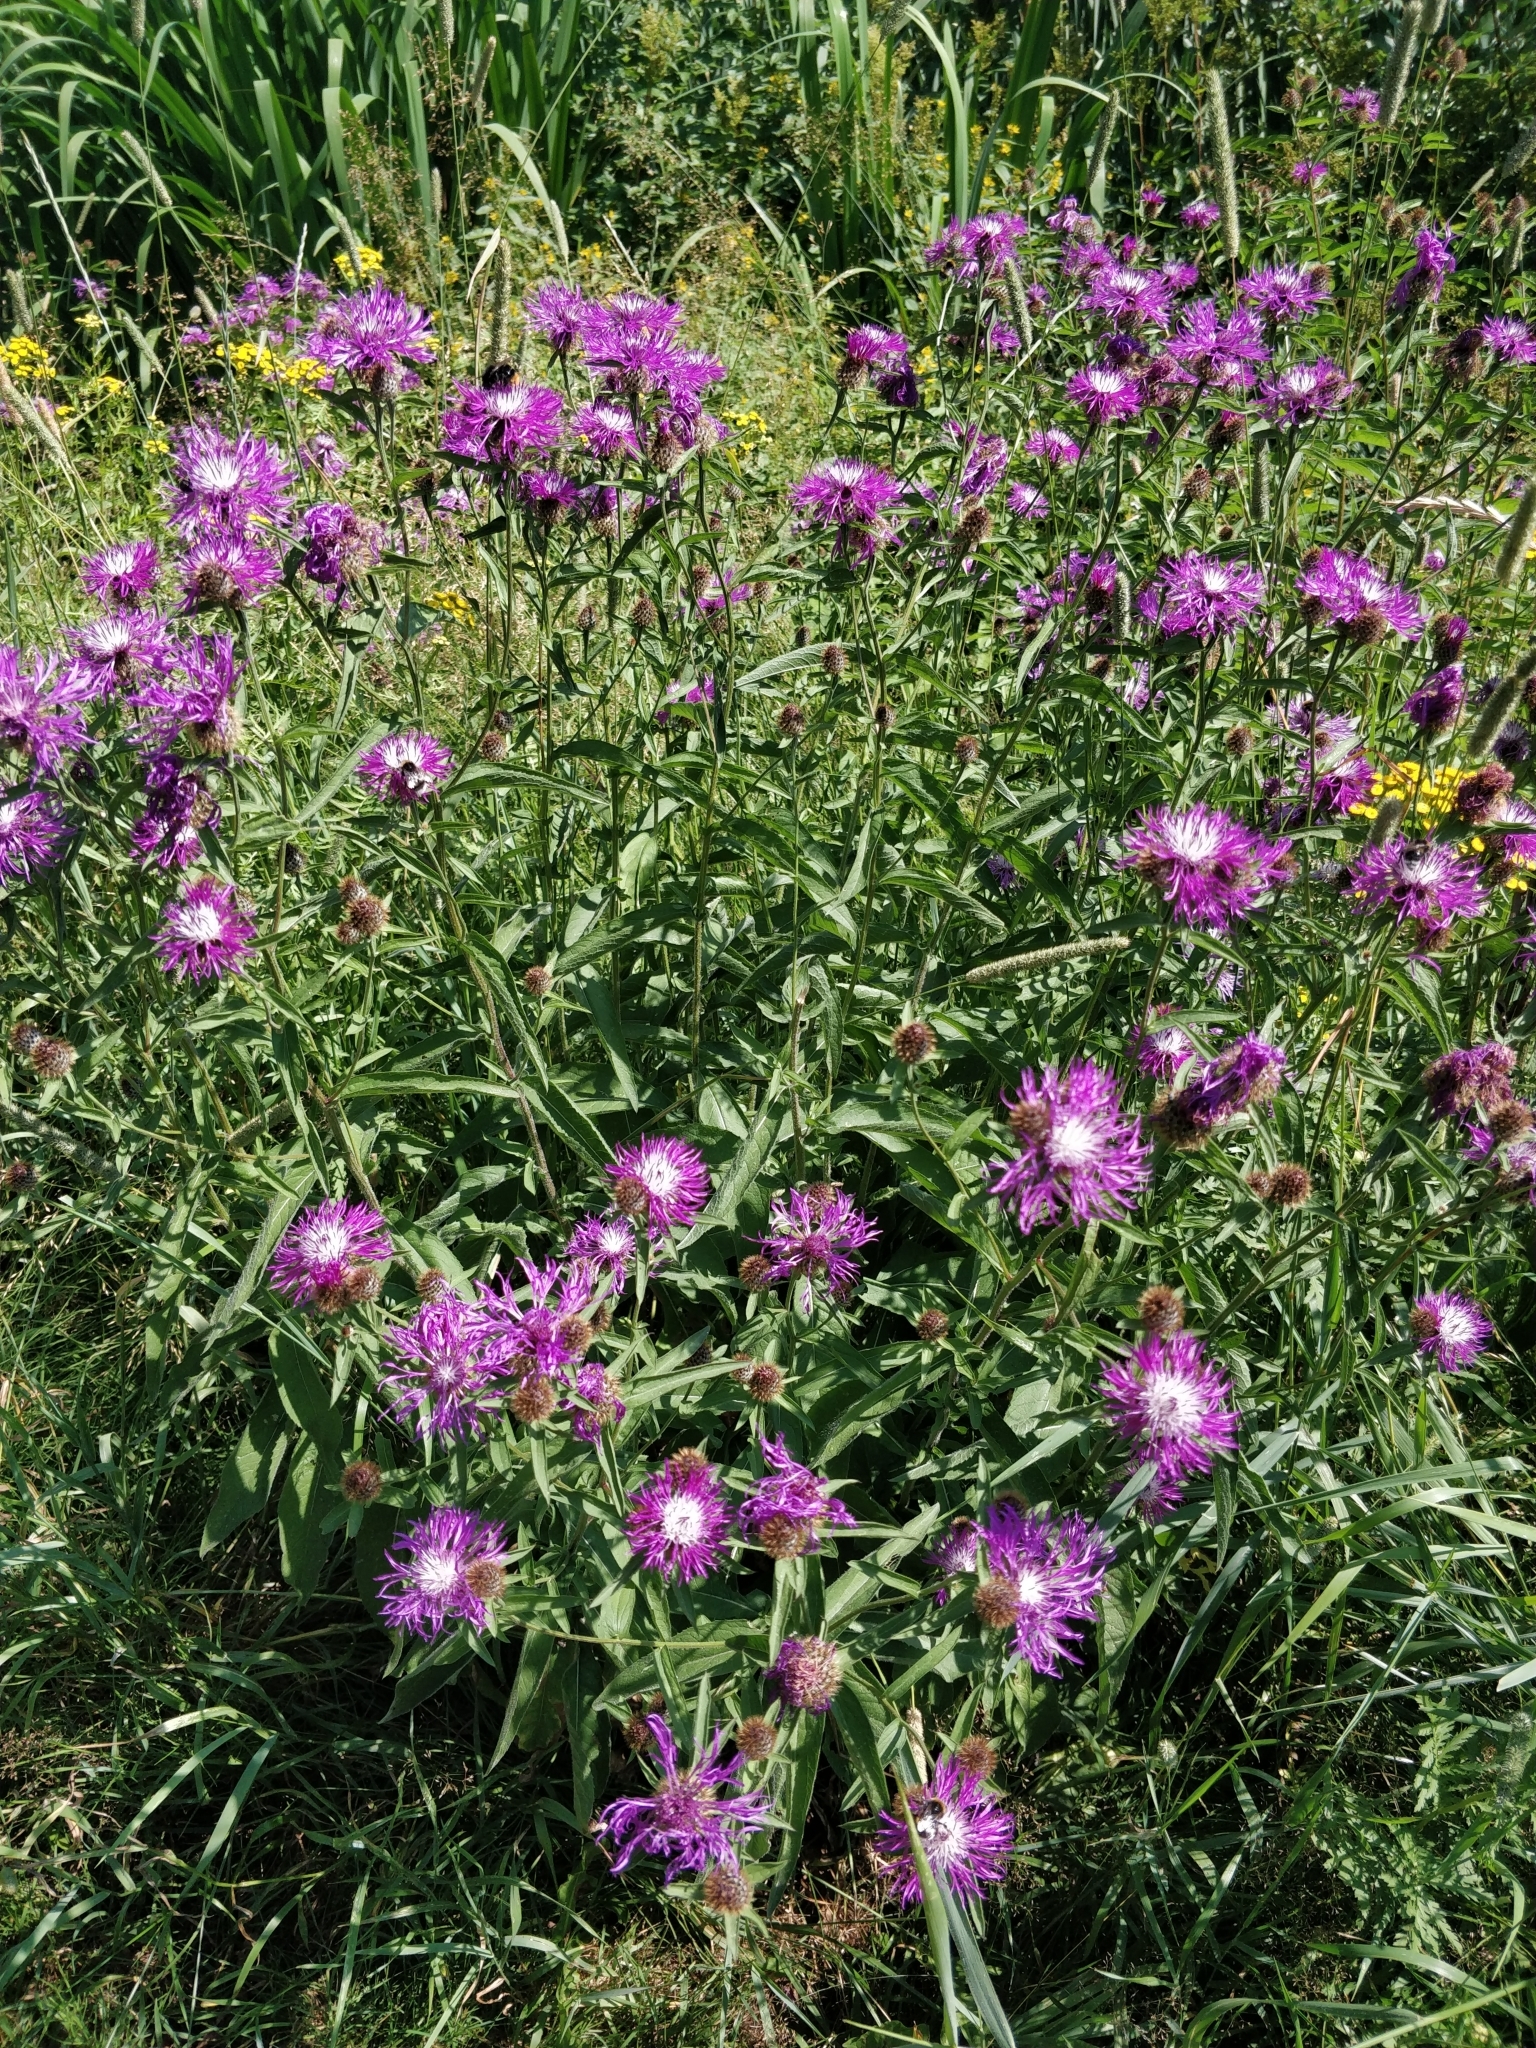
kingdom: Plantae
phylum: Tracheophyta
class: Magnoliopsida
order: Asterales
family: Asteraceae
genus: Centaurea
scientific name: Centaurea phrygia
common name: Wig knapweed
